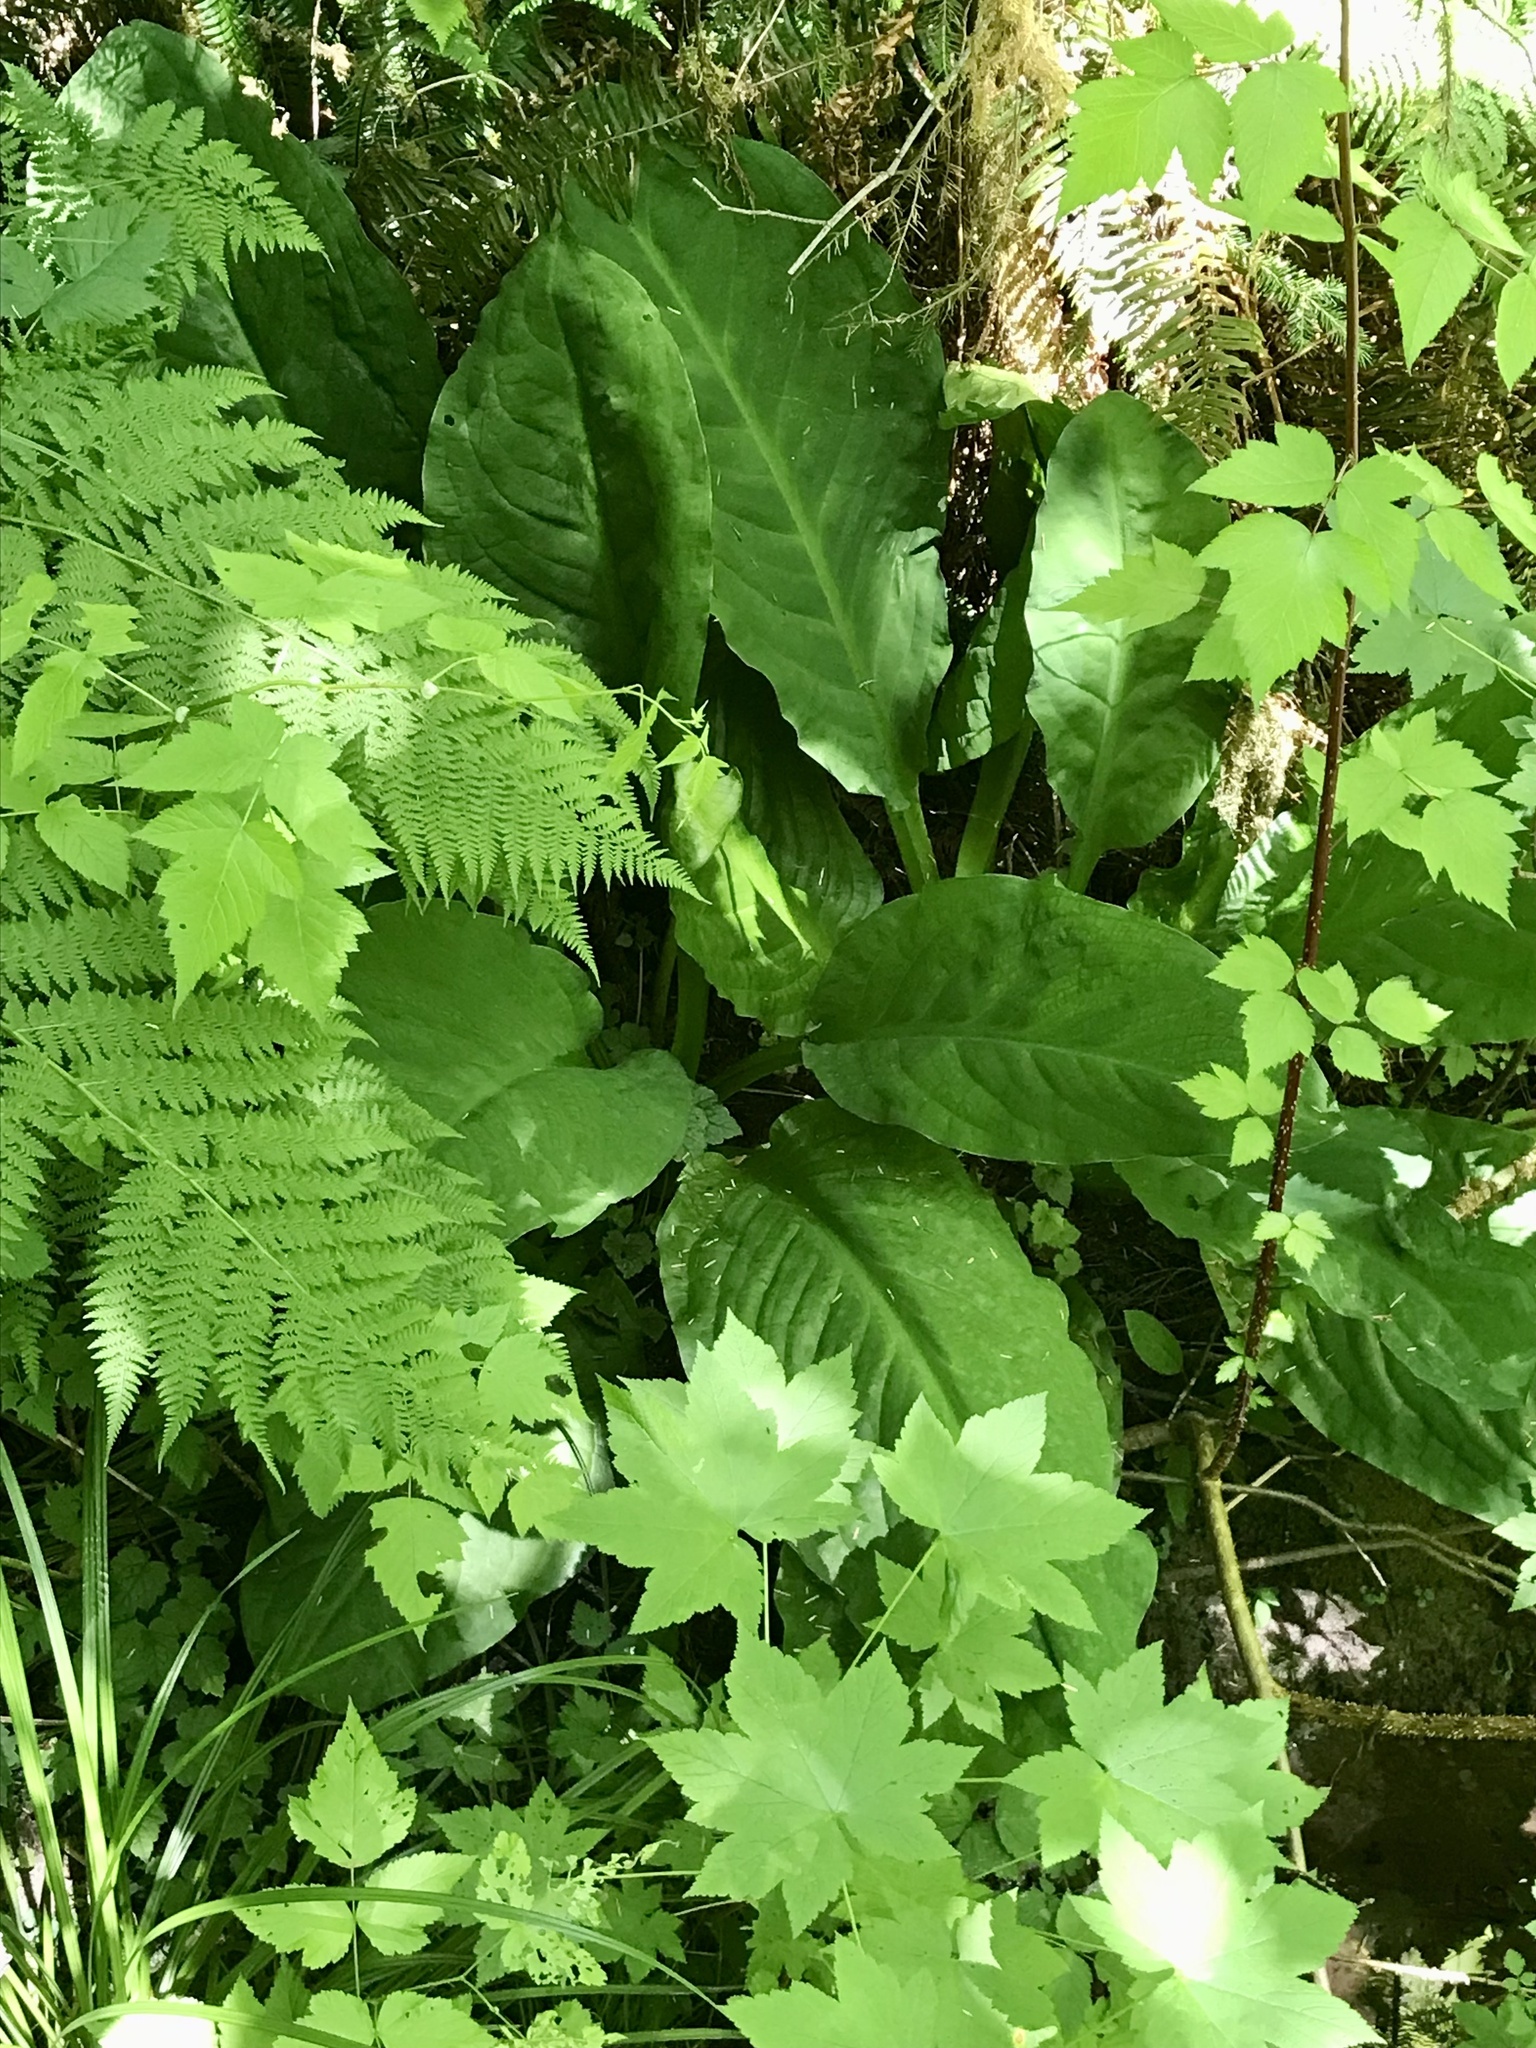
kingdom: Plantae
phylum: Tracheophyta
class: Liliopsida
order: Alismatales
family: Araceae
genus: Lysichiton
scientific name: Lysichiton americanus
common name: American skunk cabbage
